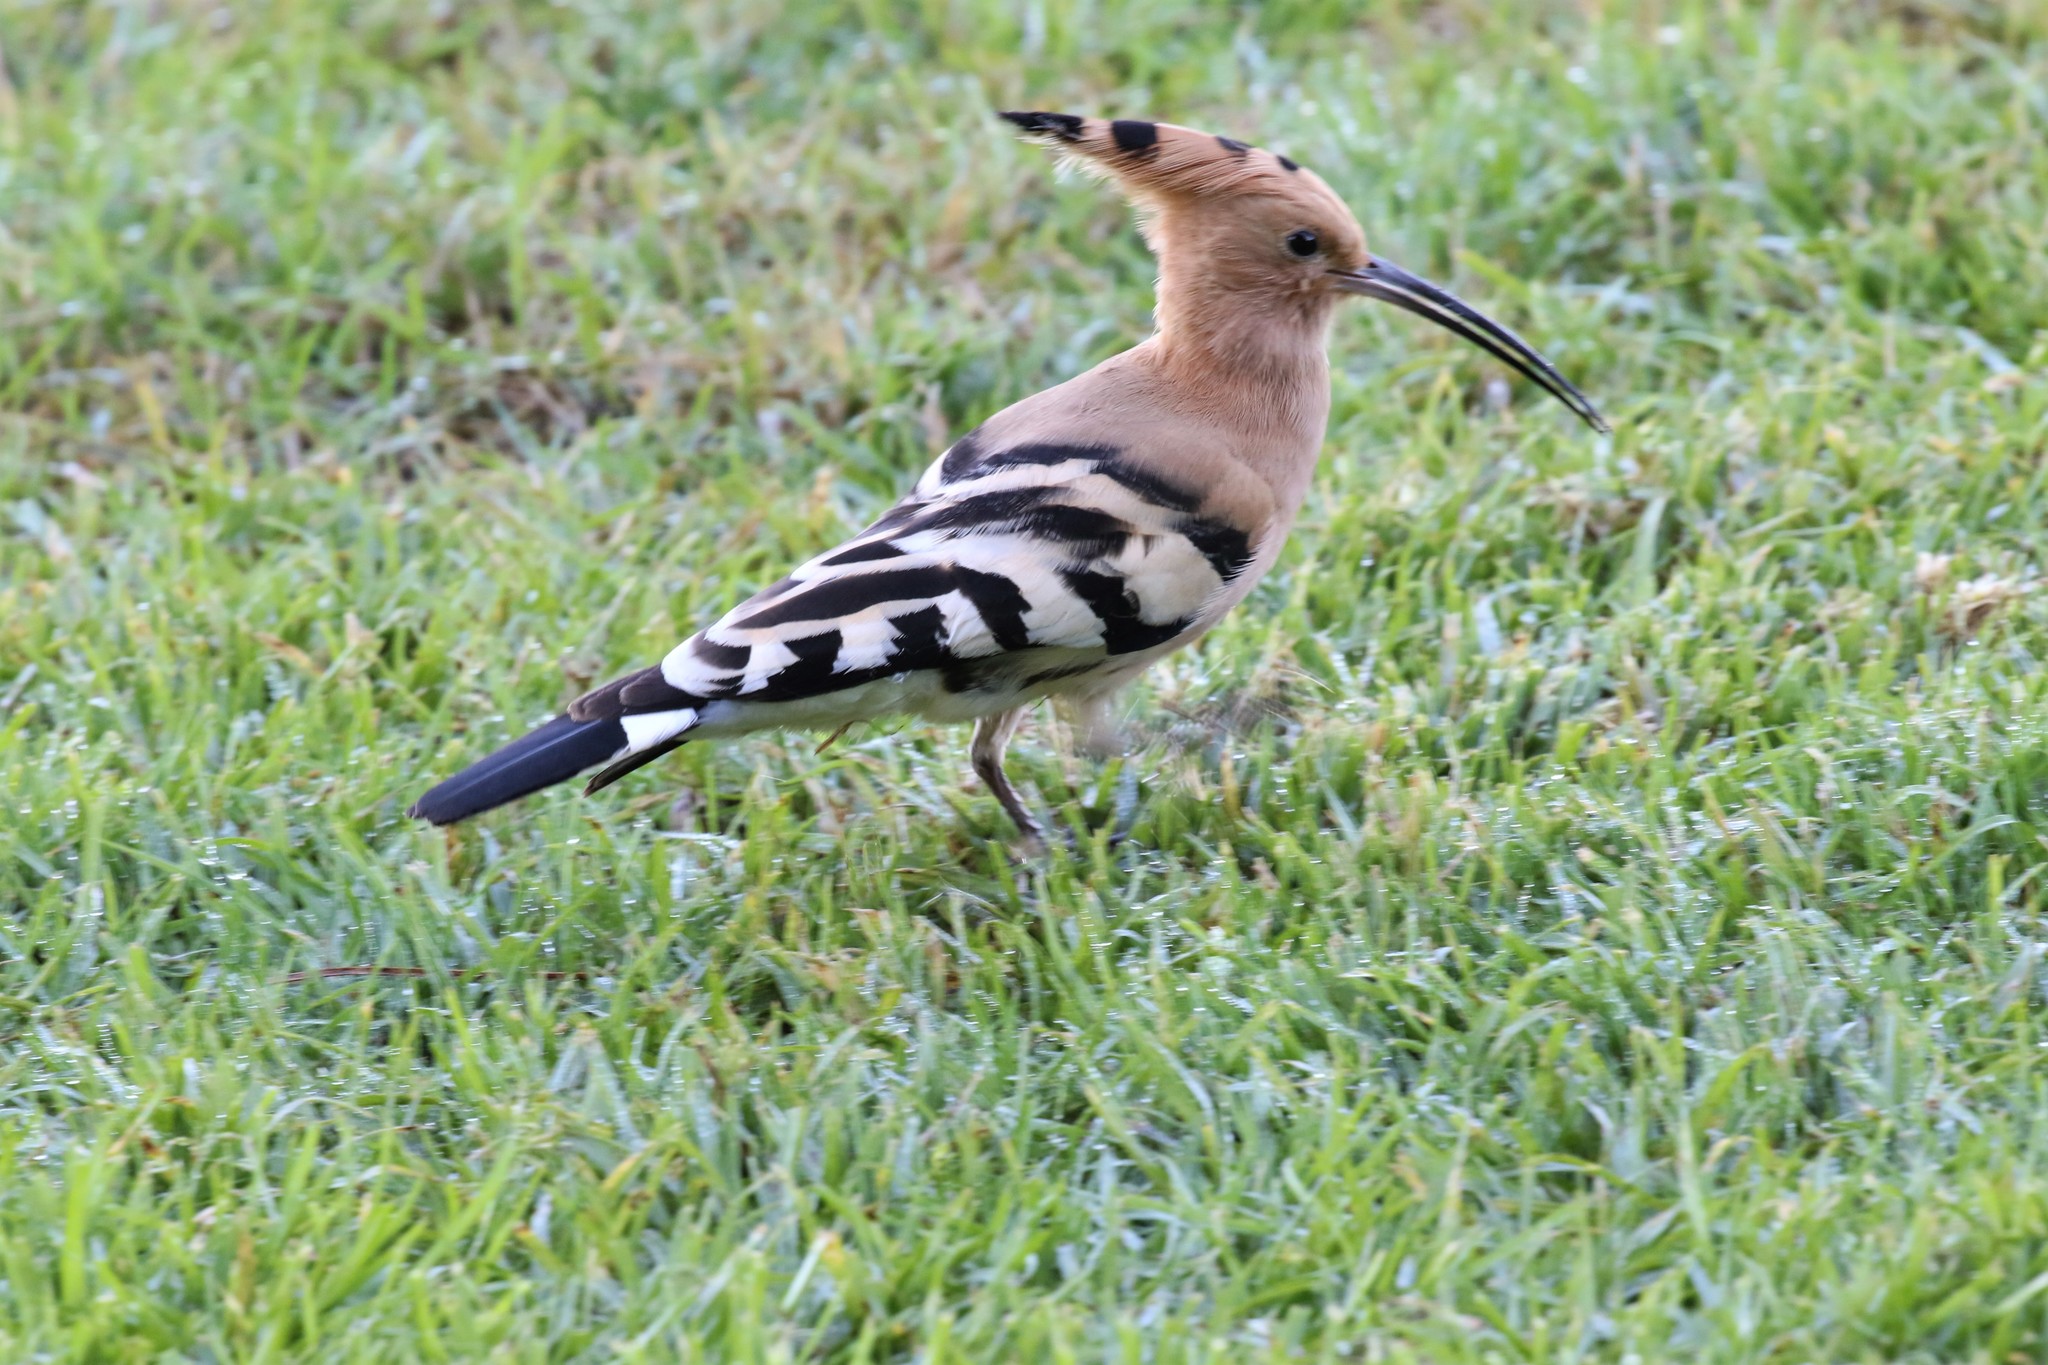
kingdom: Animalia
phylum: Chordata
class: Aves
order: Bucerotiformes
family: Upupidae
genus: Upupa
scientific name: Upupa epops
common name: Eurasian hoopoe
